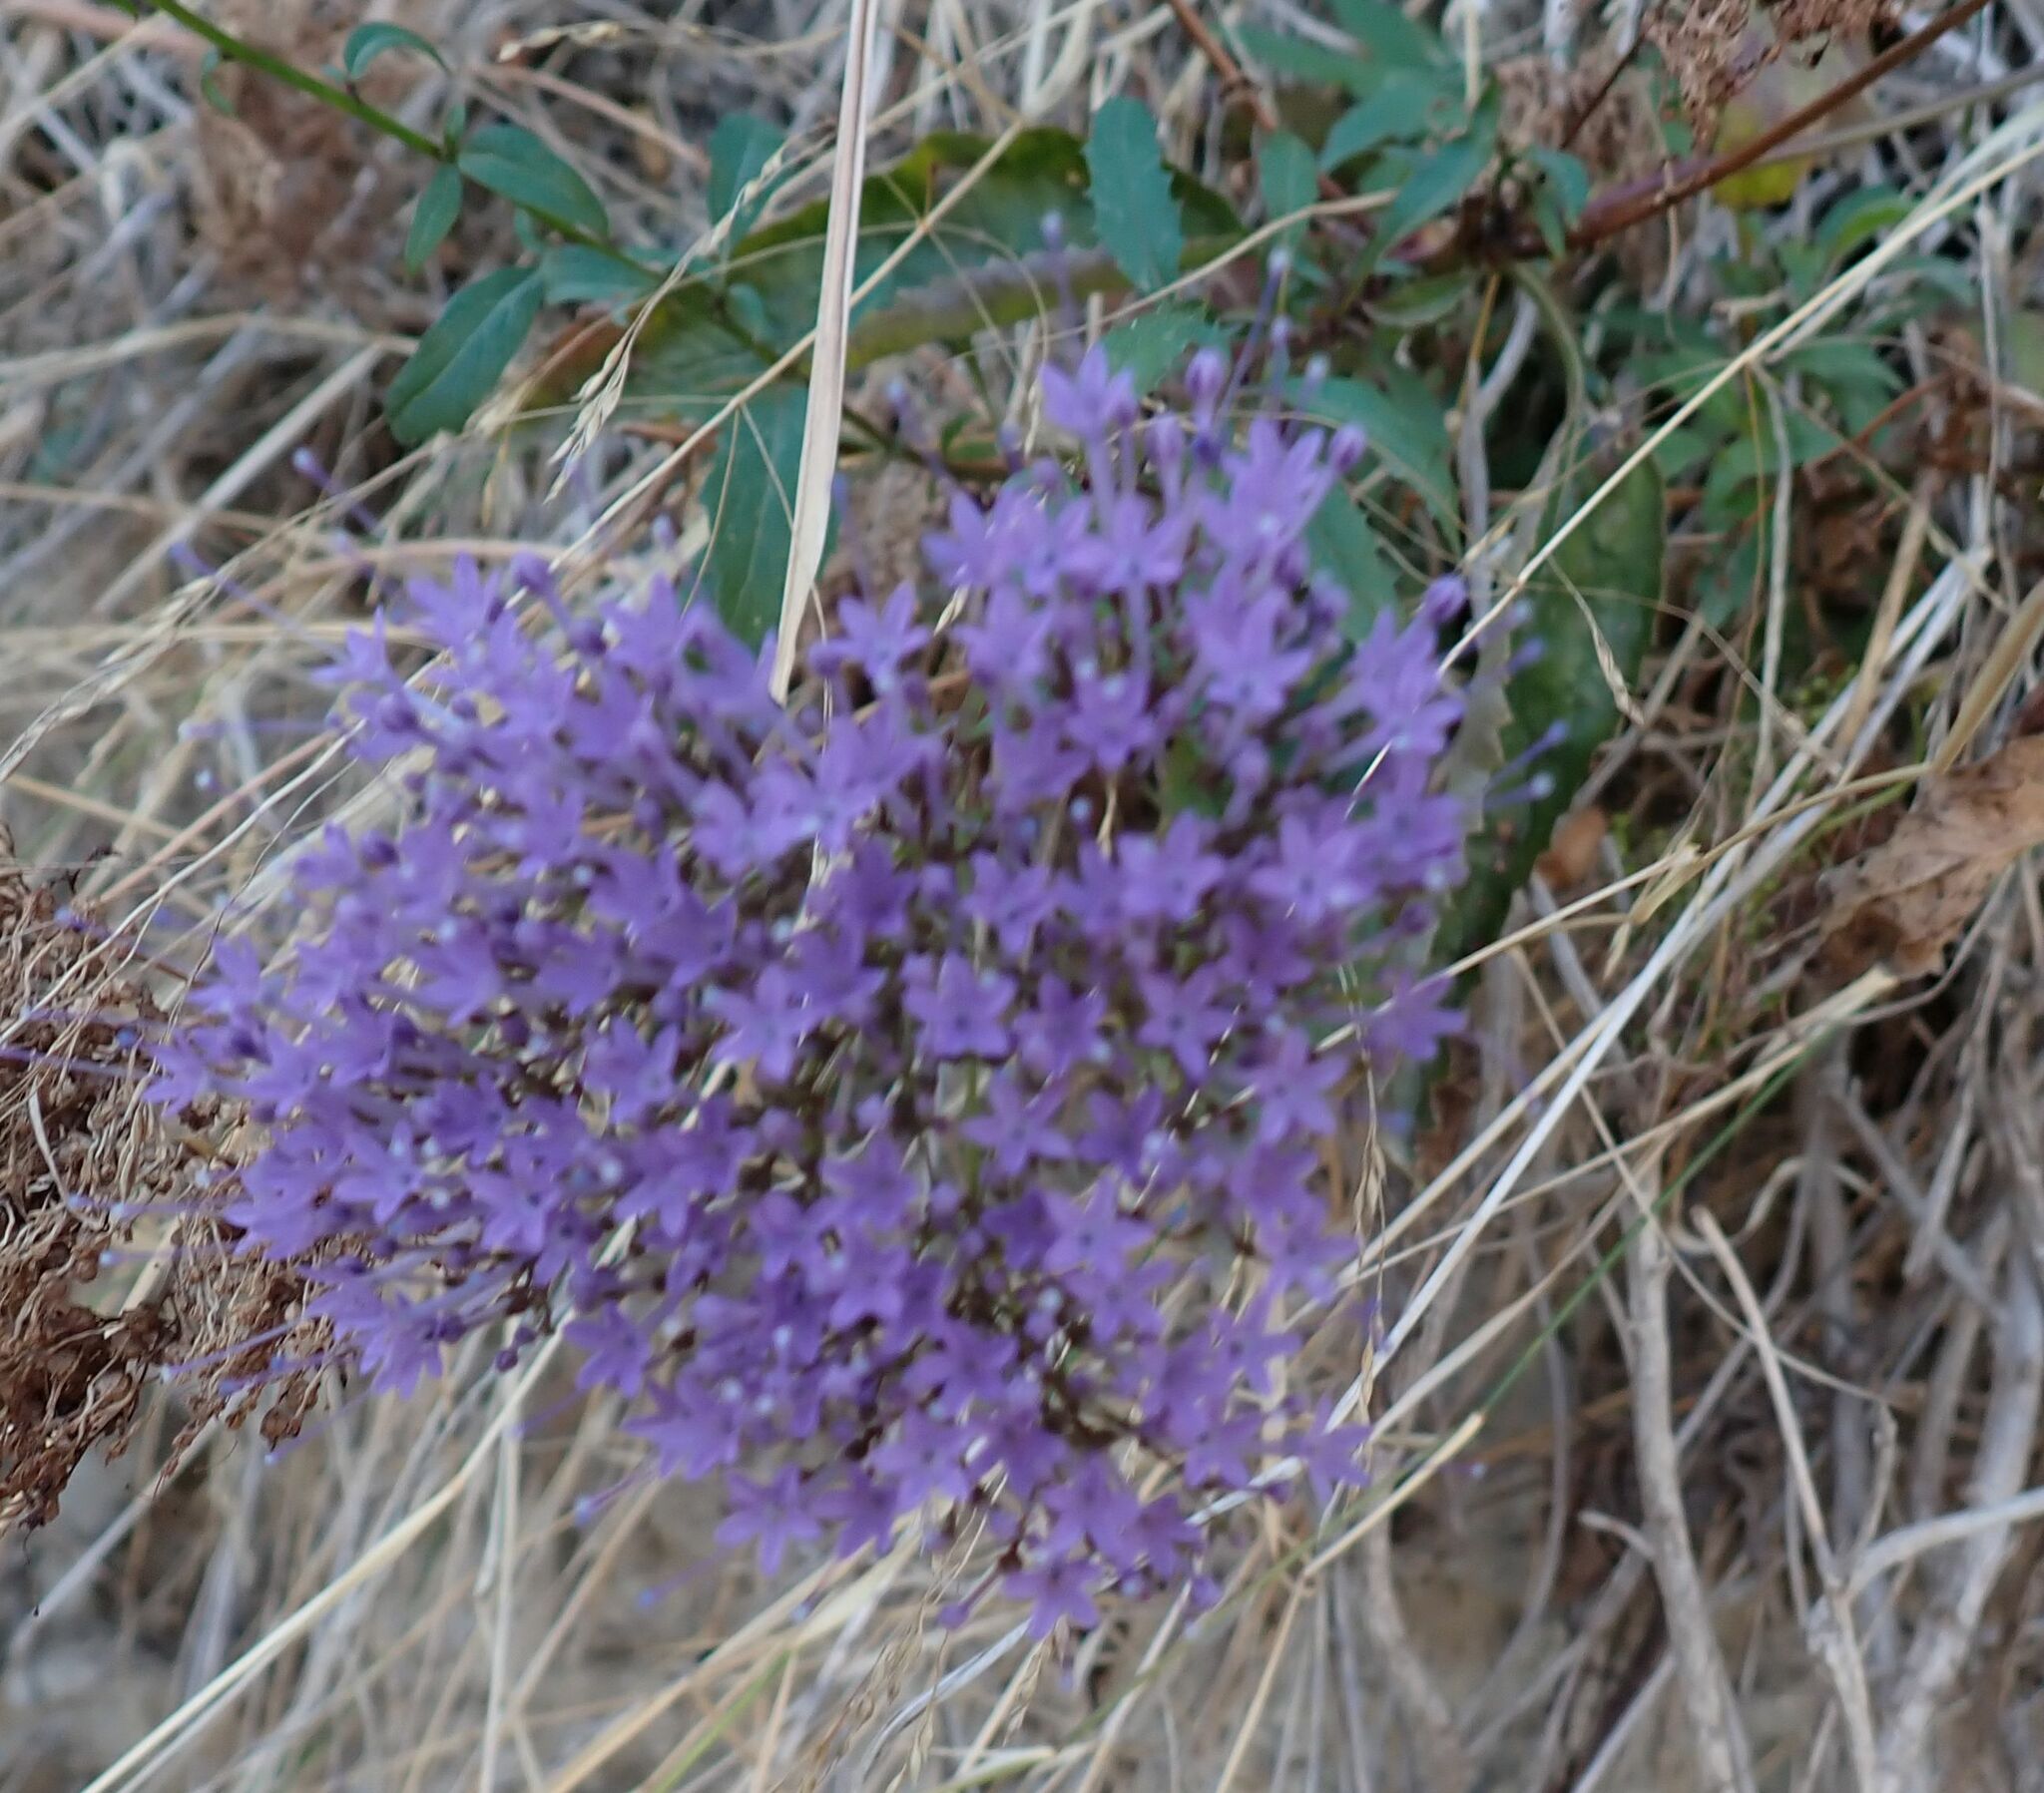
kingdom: Plantae
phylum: Tracheophyta
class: Magnoliopsida
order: Asterales
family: Campanulaceae
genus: Trachelium
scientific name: Trachelium caeruleum
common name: Throatwort
